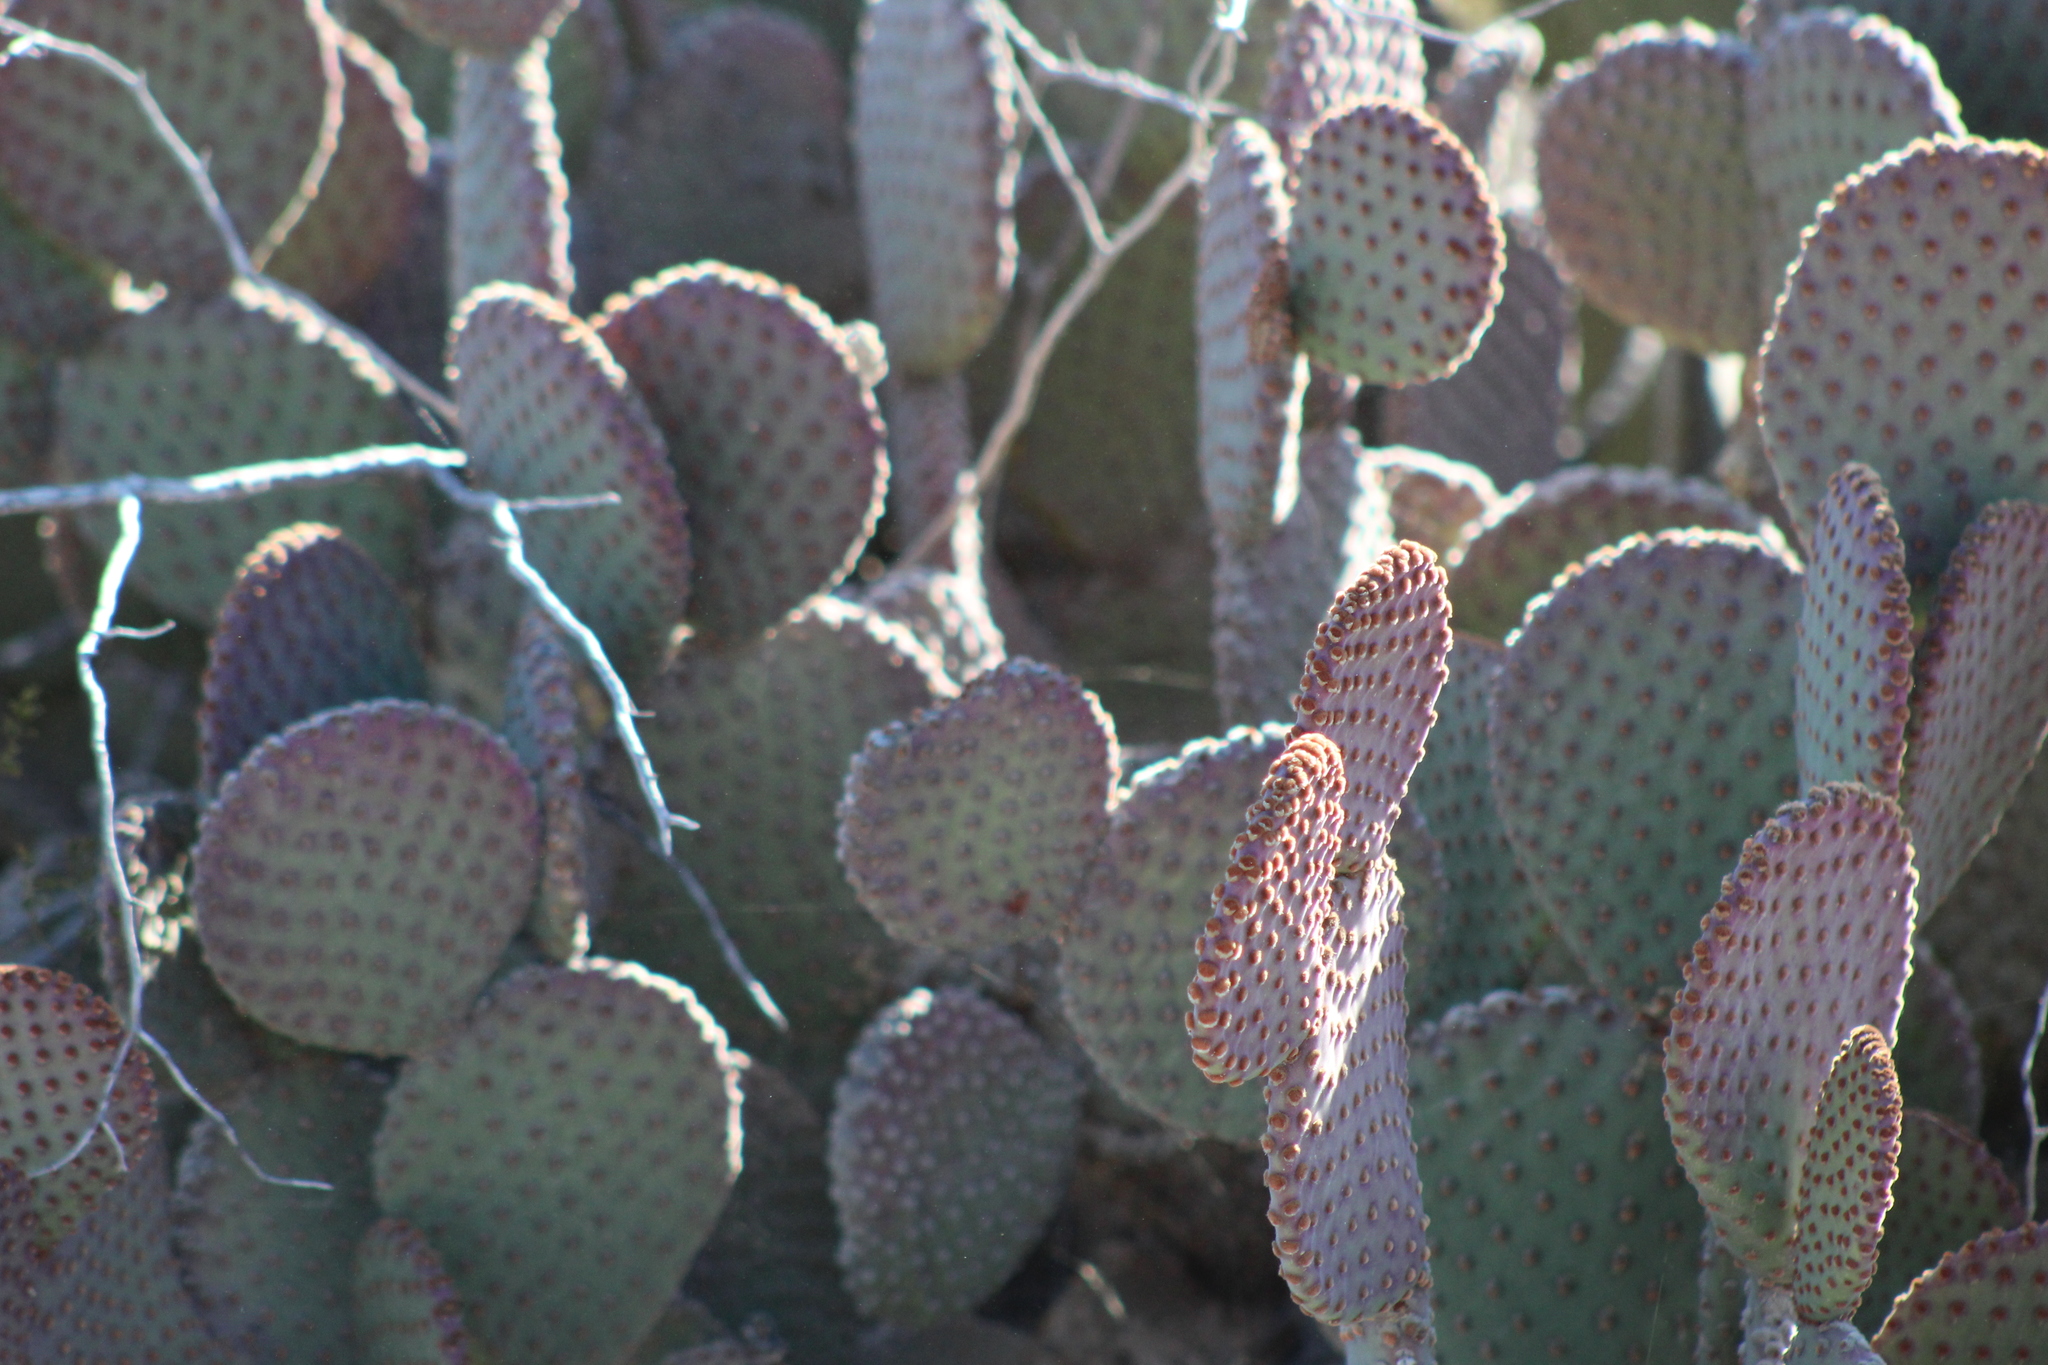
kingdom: Plantae
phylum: Tracheophyta
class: Magnoliopsida
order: Caryophyllales
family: Cactaceae
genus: Opuntia
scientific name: Opuntia rufida
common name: Blind pricklypear
